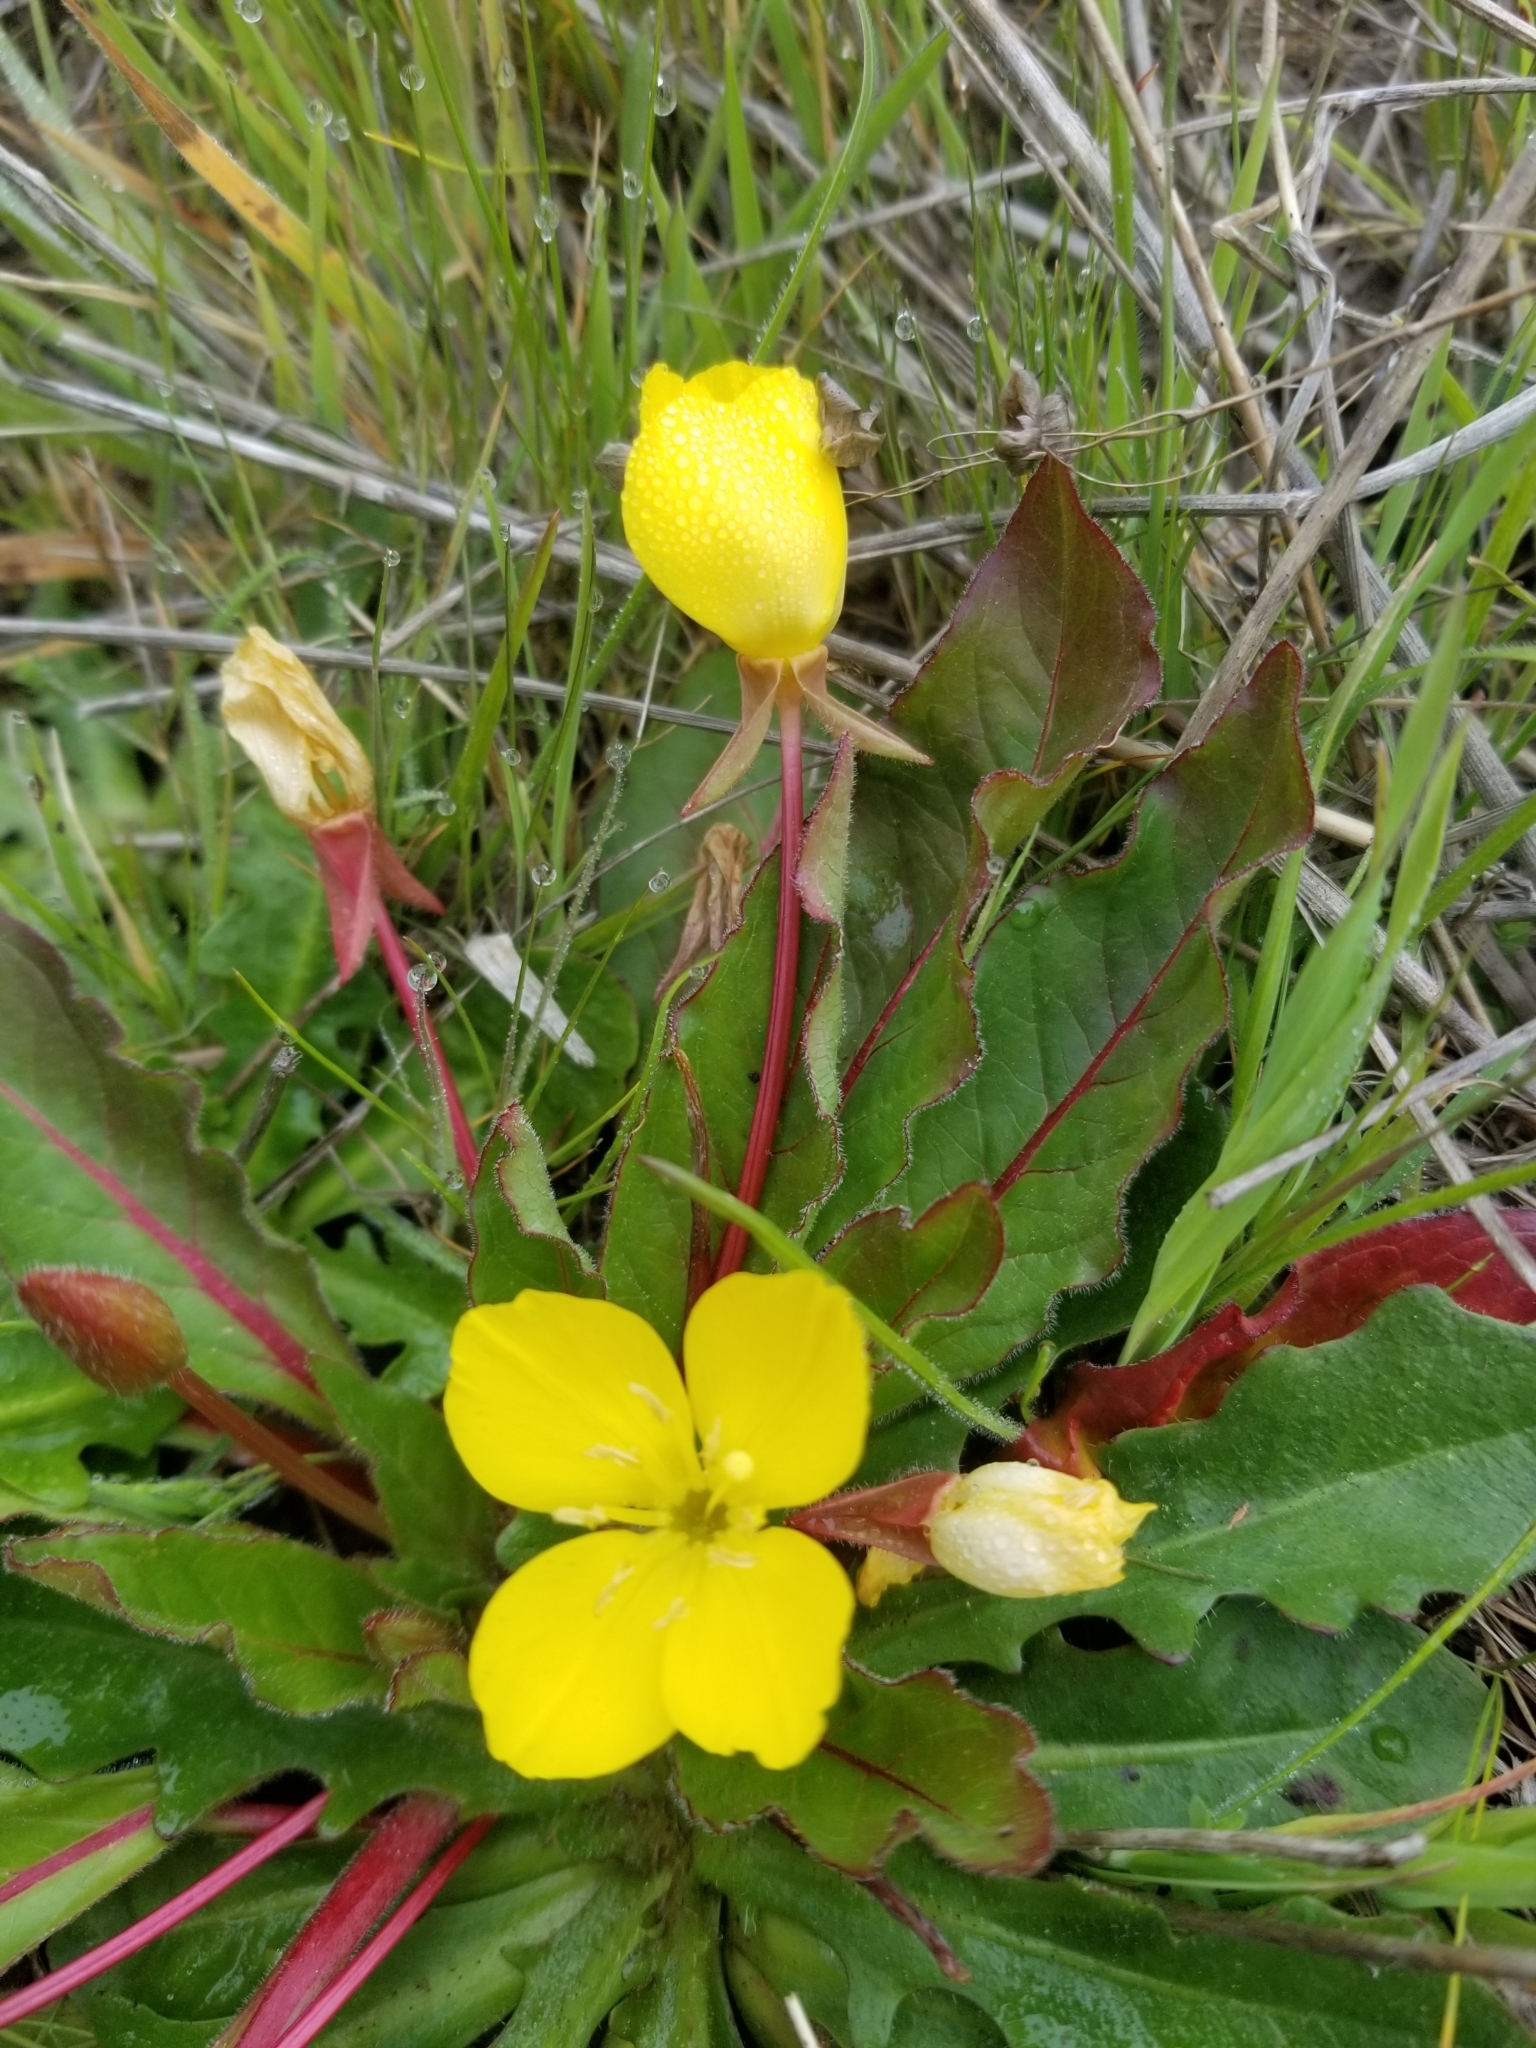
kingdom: Plantae
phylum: Tracheophyta
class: Magnoliopsida
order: Myrtales
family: Onagraceae
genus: Taraxia
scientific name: Taraxia ovata
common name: Goldeneggs
